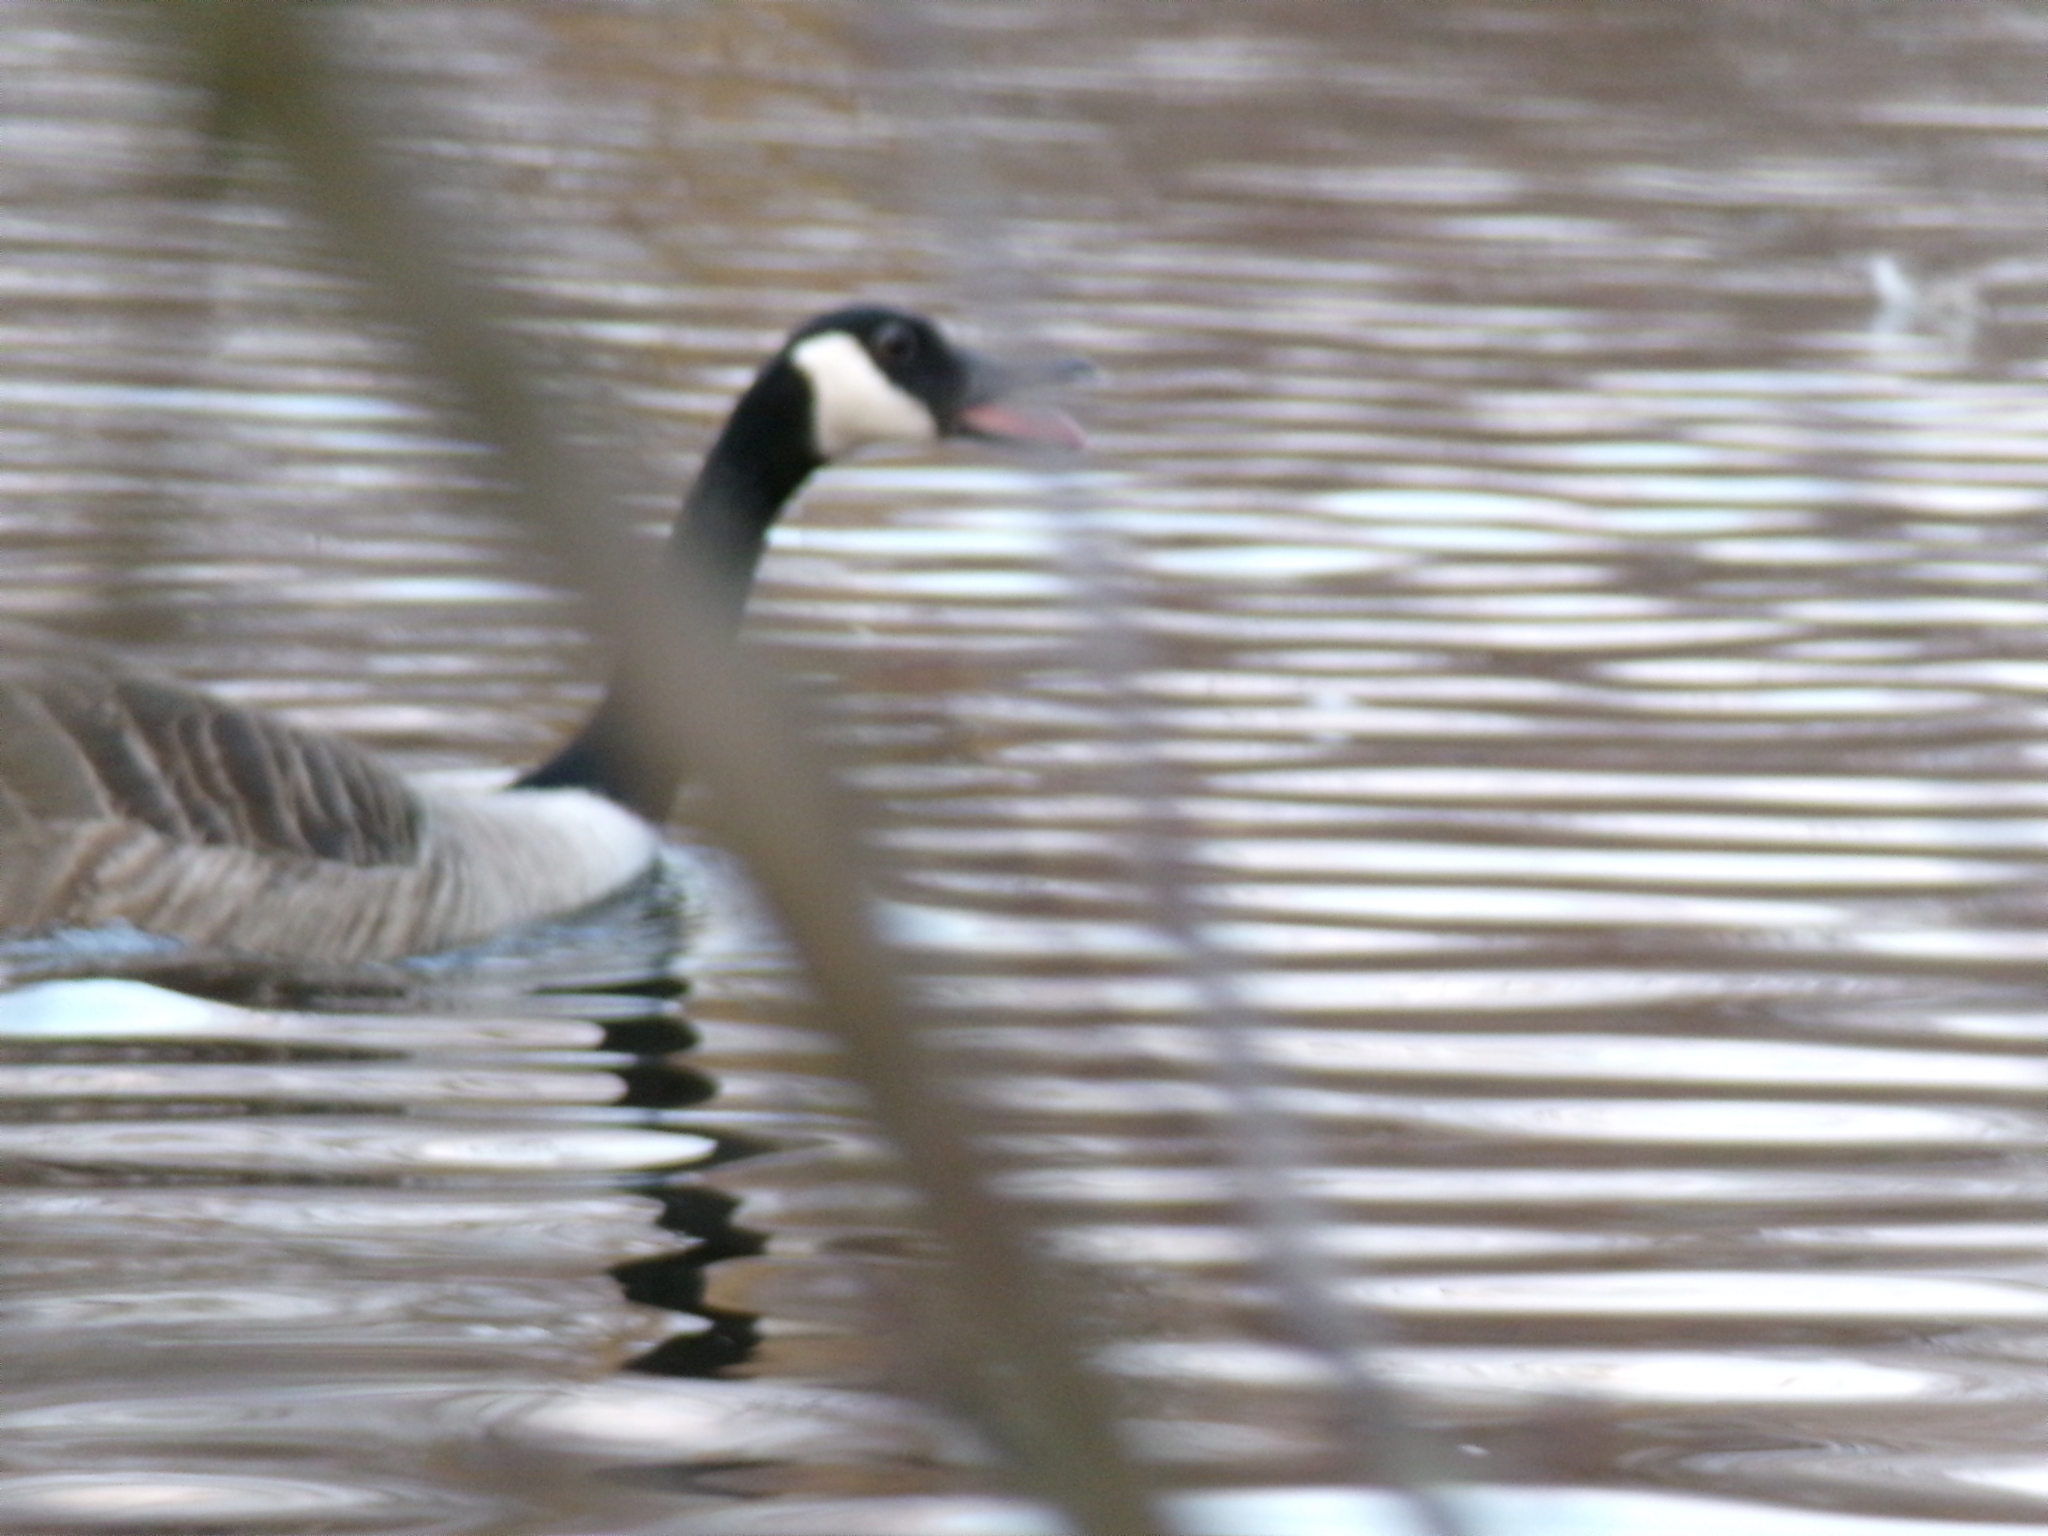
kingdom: Animalia
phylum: Chordata
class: Aves
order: Anseriformes
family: Anatidae
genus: Branta
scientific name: Branta canadensis
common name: Canada goose
